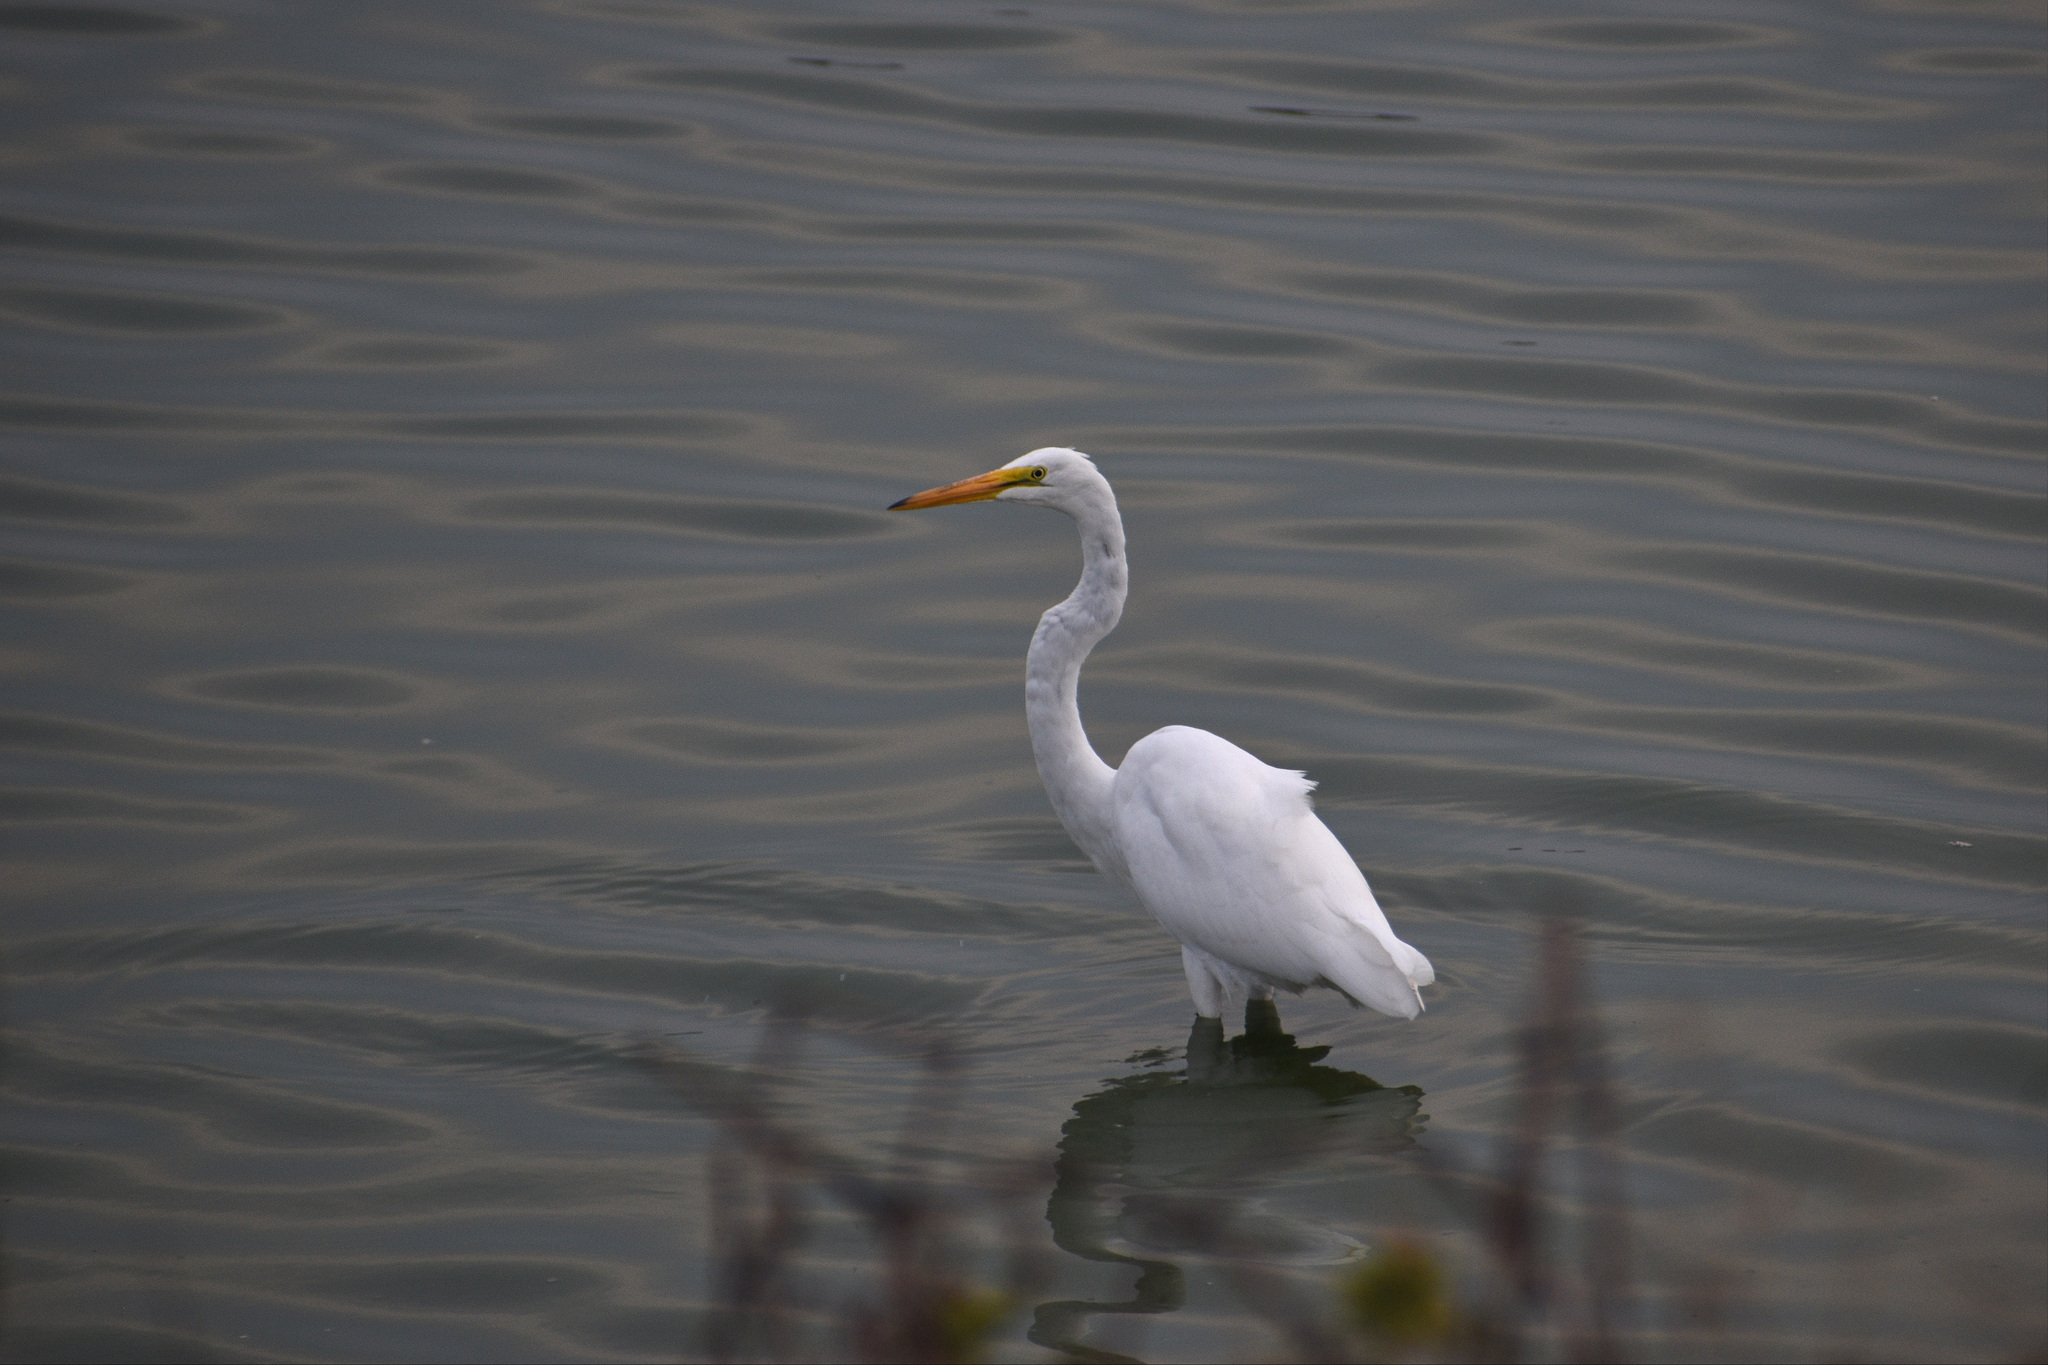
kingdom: Animalia
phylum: Chordata
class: Aves
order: Pelecaniformes
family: Ardeidae
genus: Ardea
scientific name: Ardea alba
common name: Great egret
